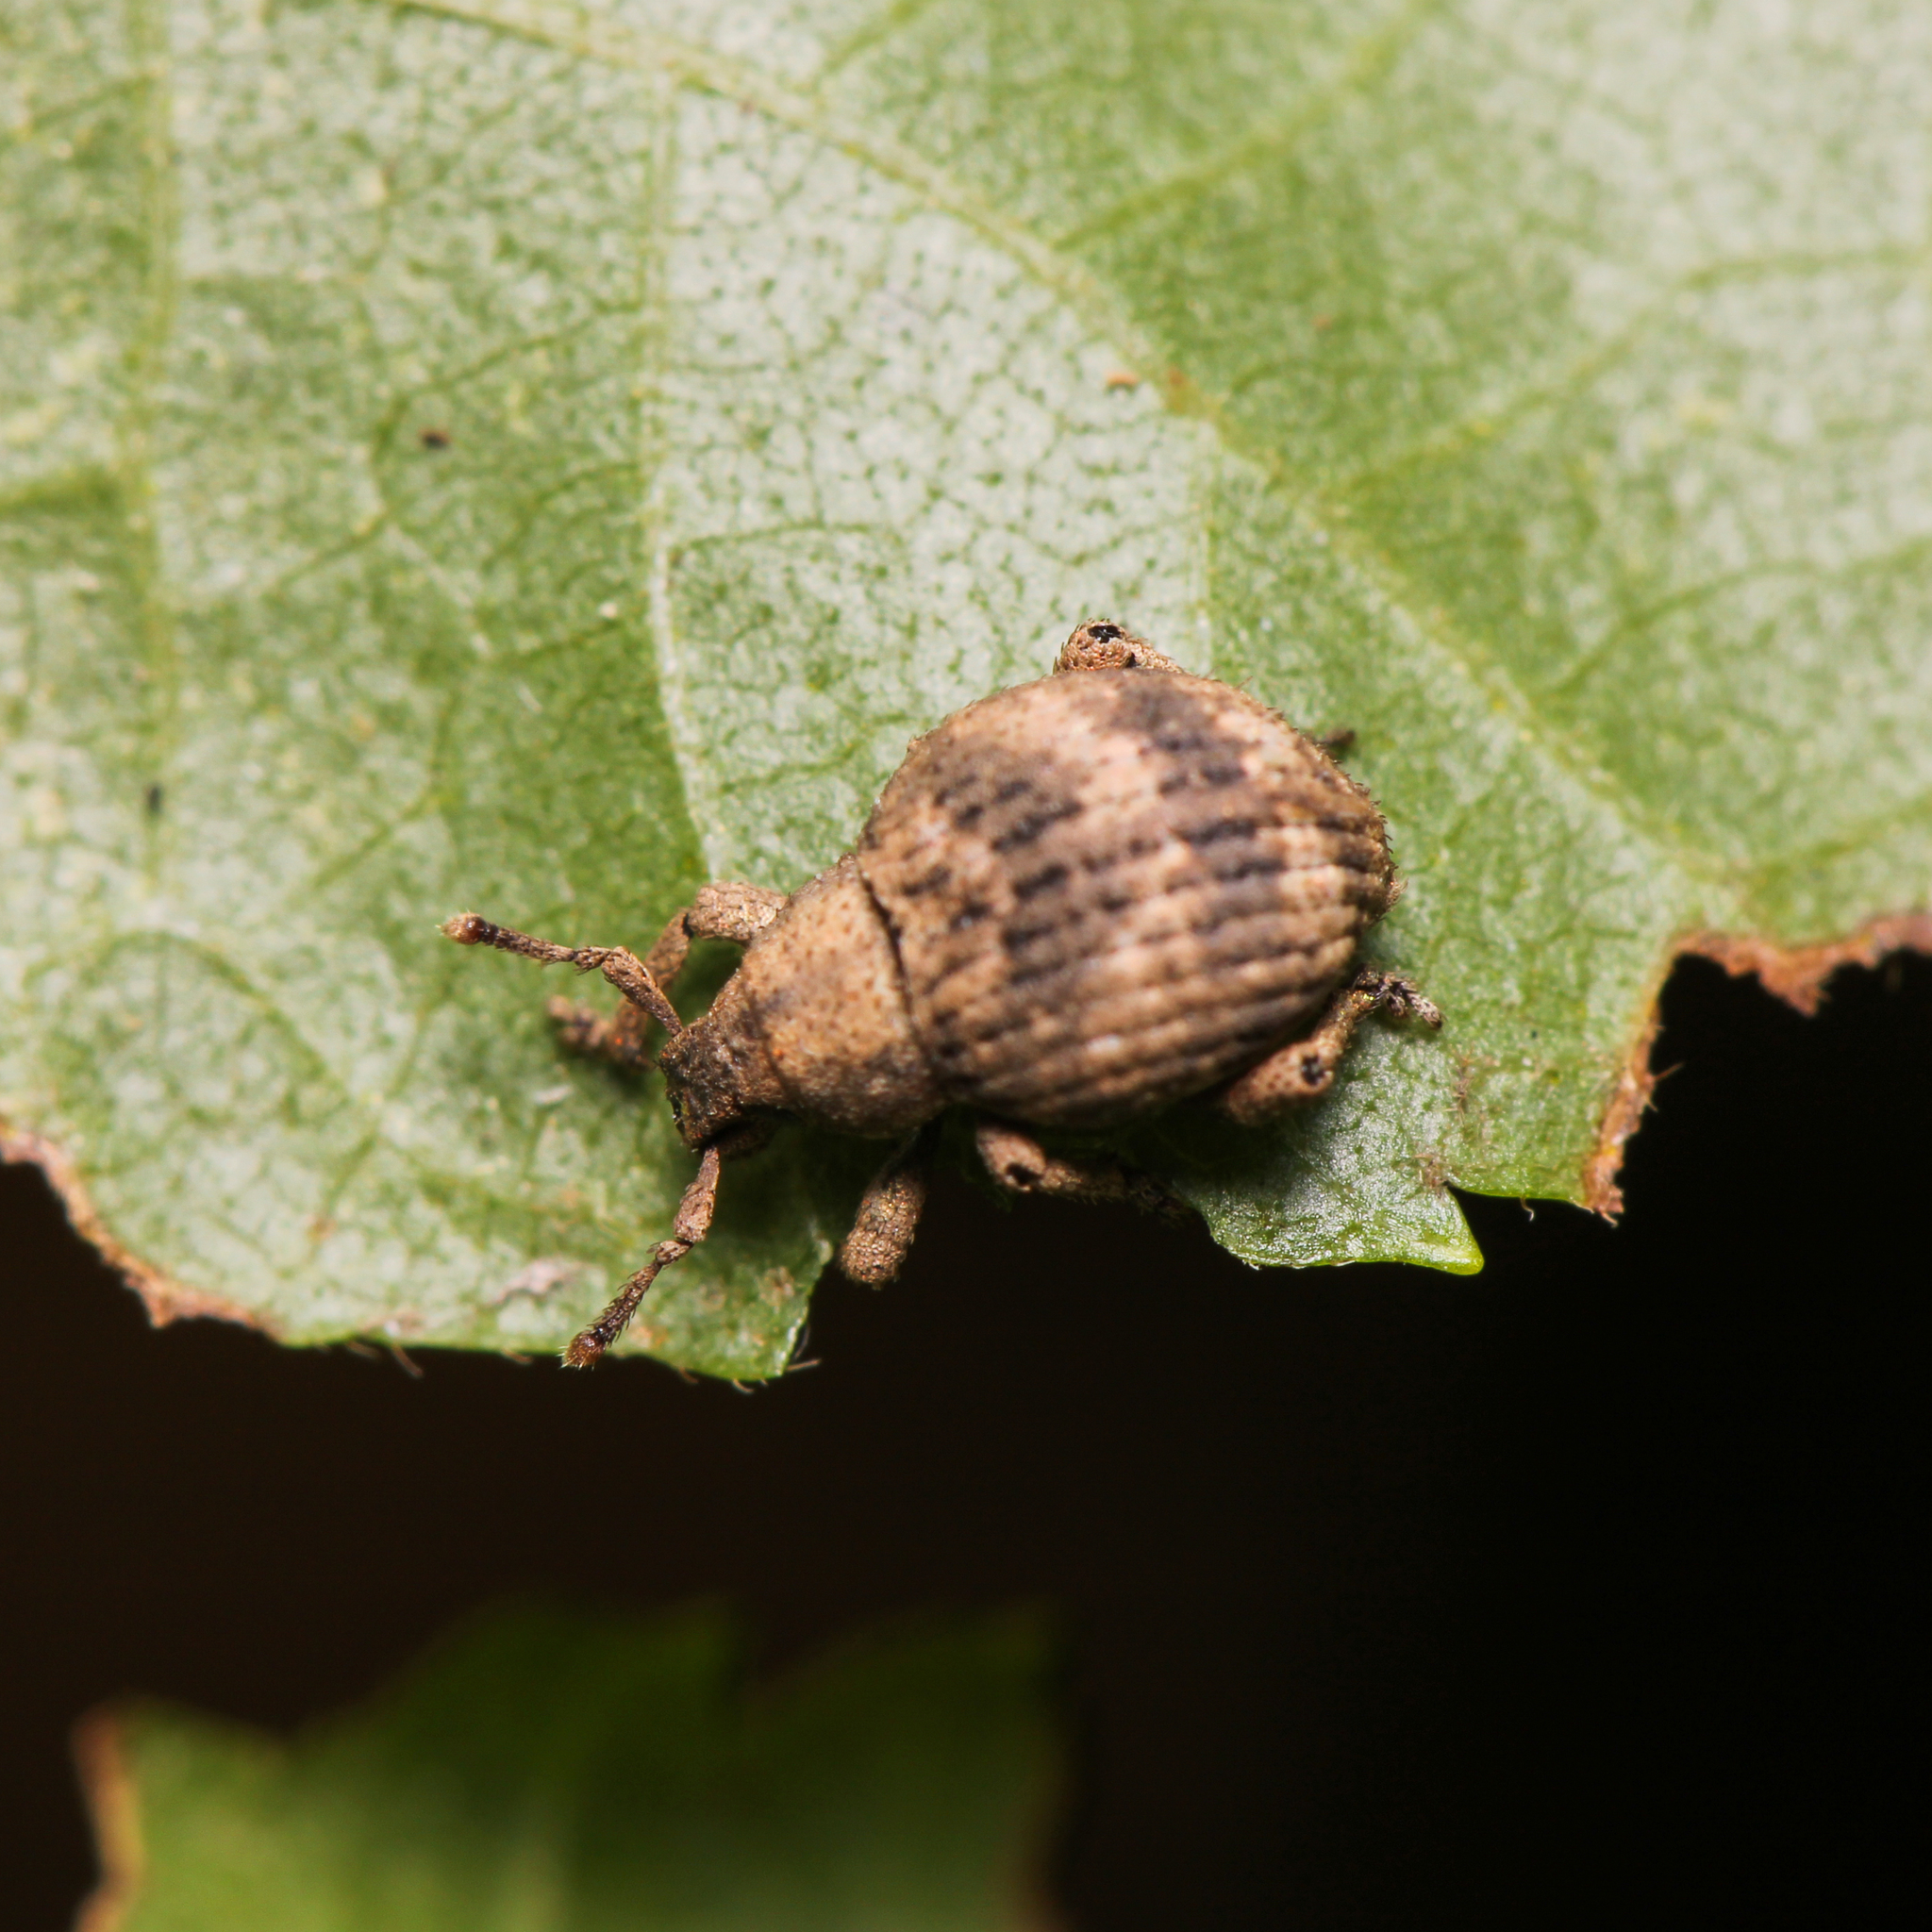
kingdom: Animalia
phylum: Arthropoda
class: Insecta
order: Coleoptera
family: Curculionidae
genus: Pseudocneorhinus
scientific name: Pseudocneorhinus bifasciatus
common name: Two-banded japanese weevil
